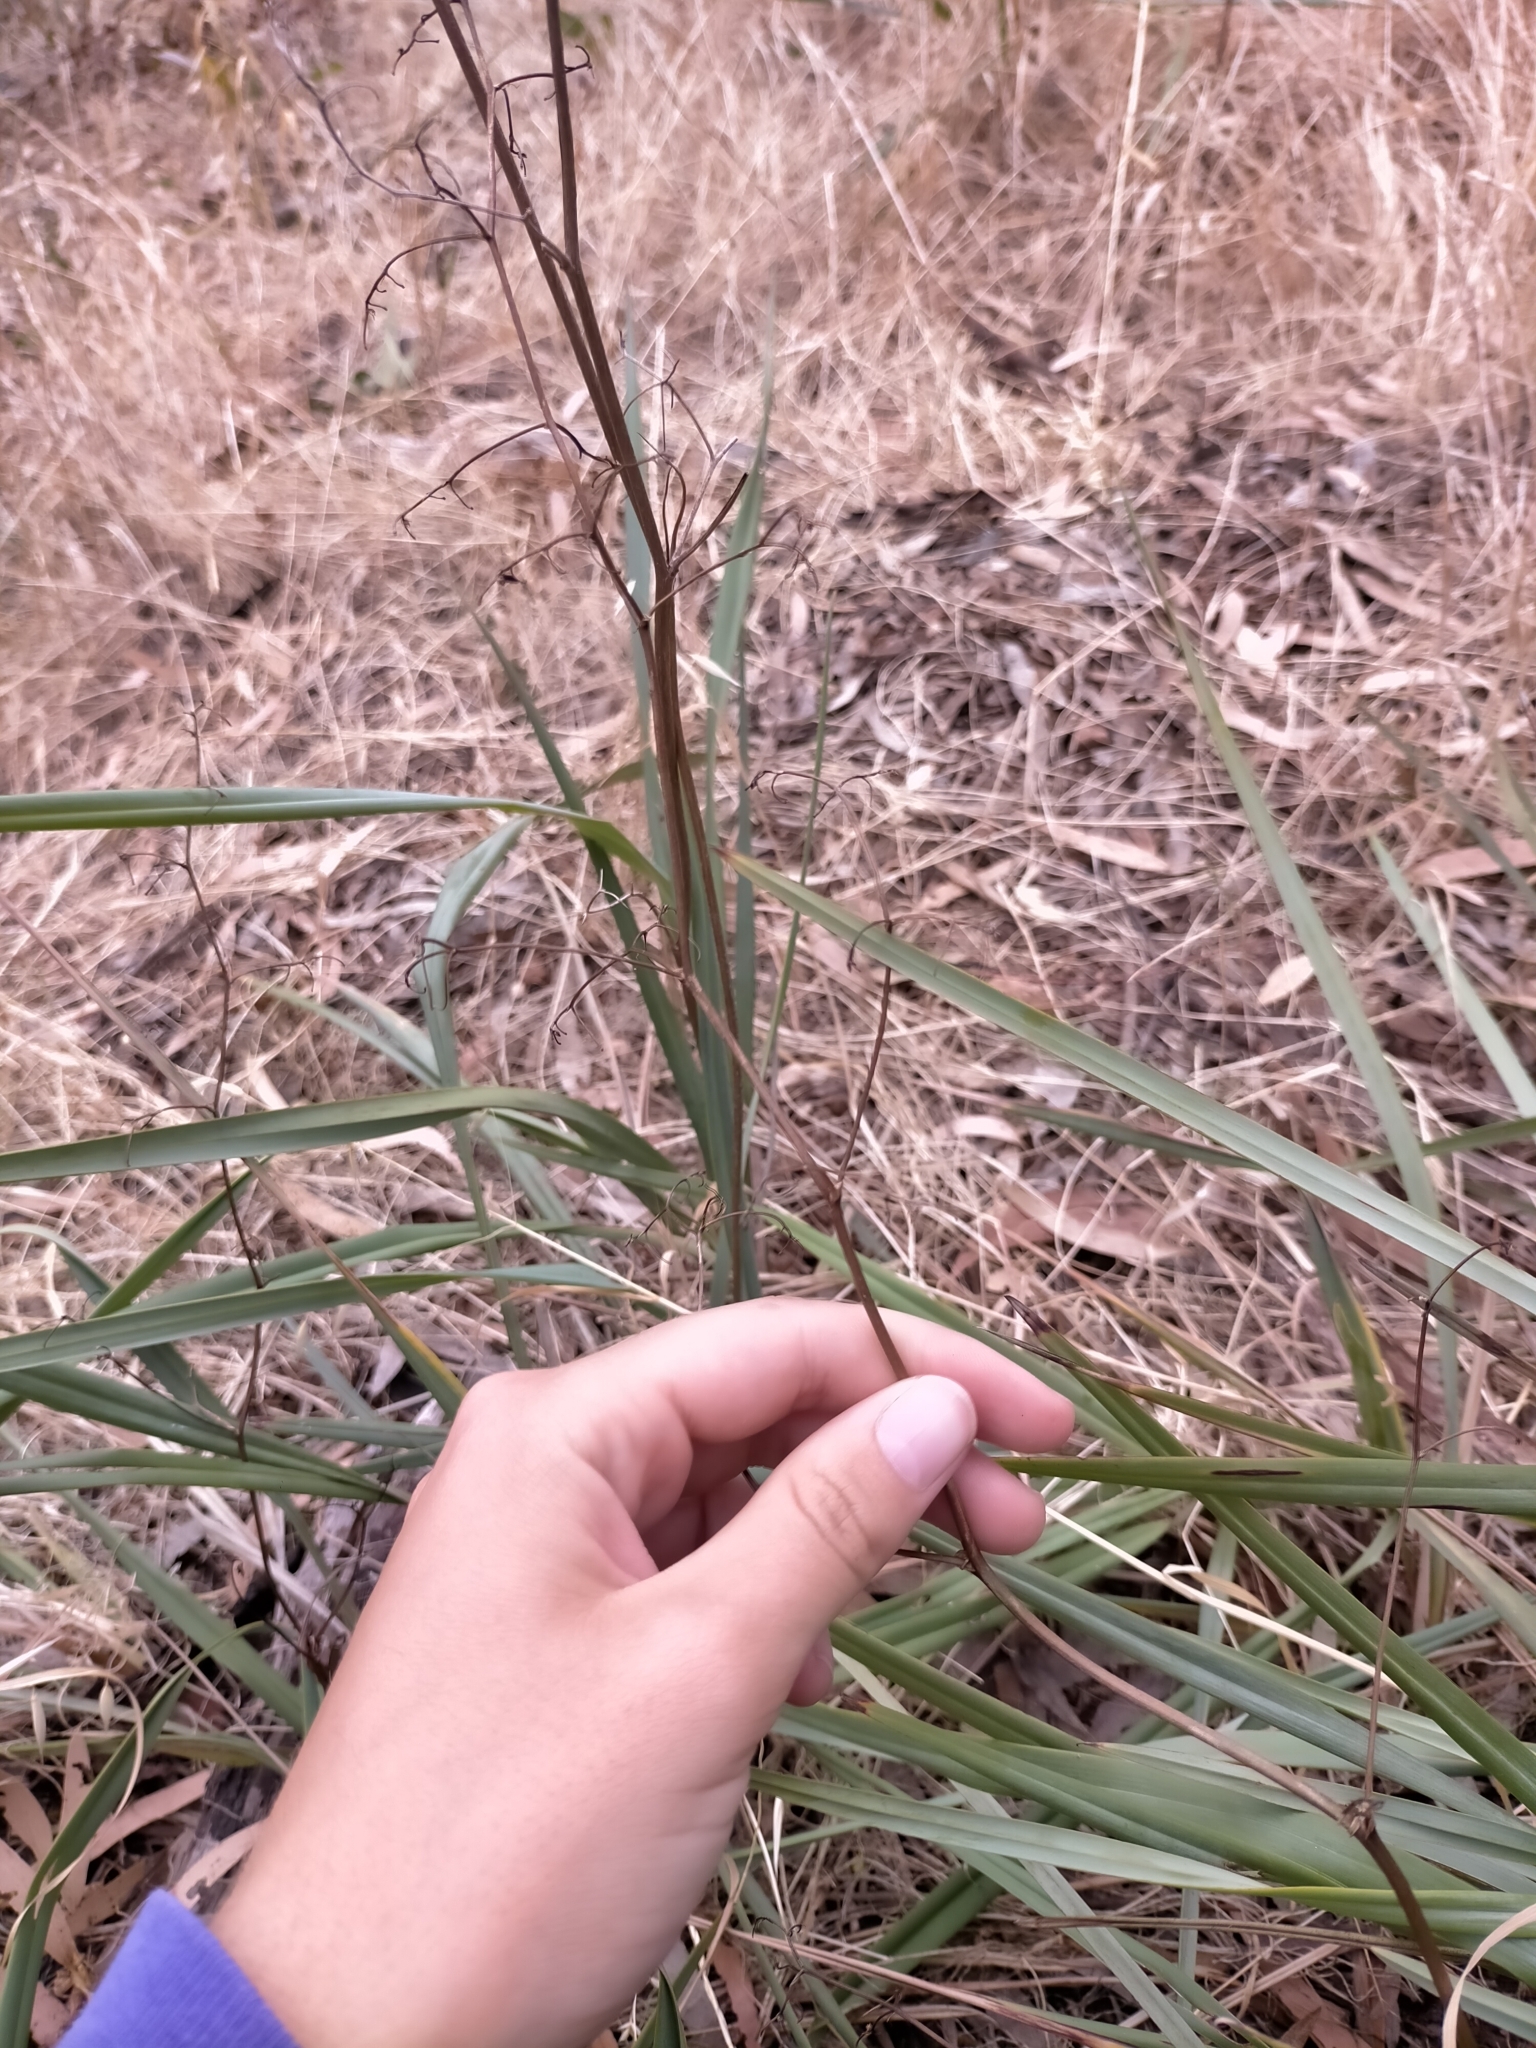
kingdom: Plantae
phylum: Tracheophyta
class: Liliopsida
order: Asparagales
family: Asphodelaceae
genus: Dianella
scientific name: Dianella revoluta
